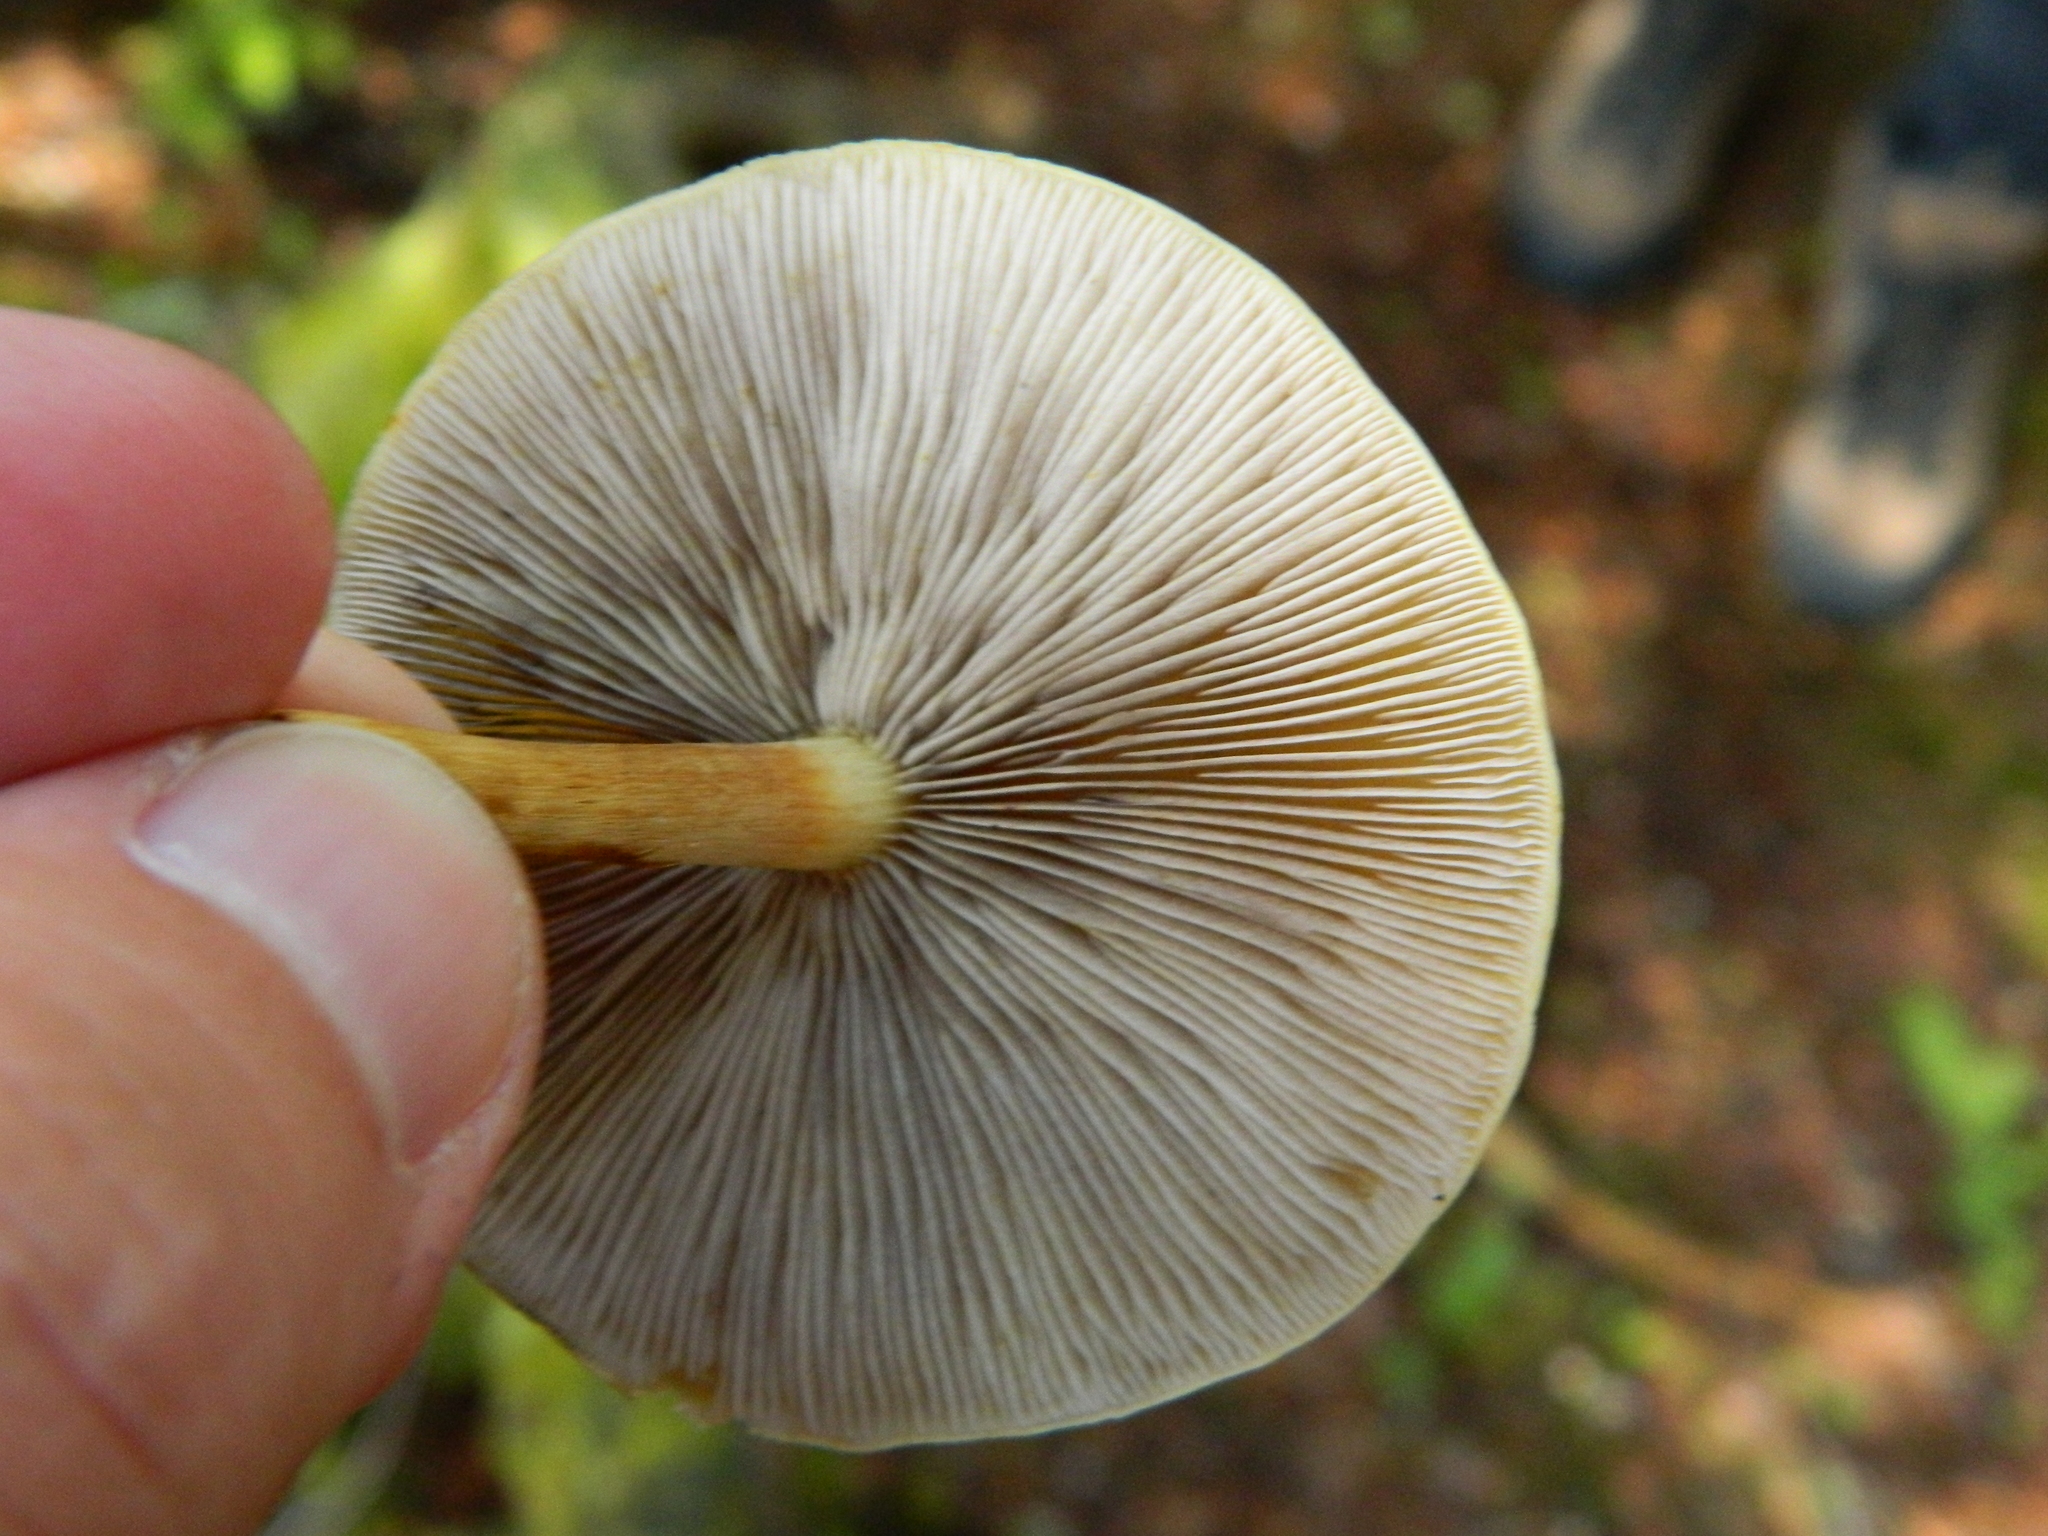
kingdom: Fungi
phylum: Basidiomycota
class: Agaricomycetes
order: Agaricales
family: Strophariaceae
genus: Hypholoma
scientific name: Hypholoma capnoides
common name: Conifer tuft
